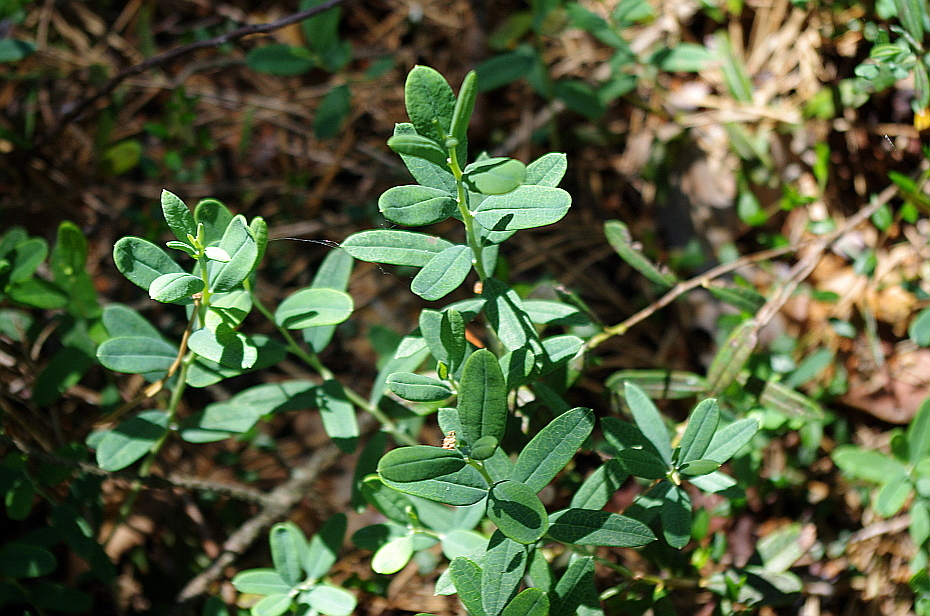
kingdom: Plantae
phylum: Tracheophyta
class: Magnoliopsida
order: Ericales
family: Ericaceae
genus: Vaccinium
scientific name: Vaccinium uliginosum
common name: Bog bilberry
